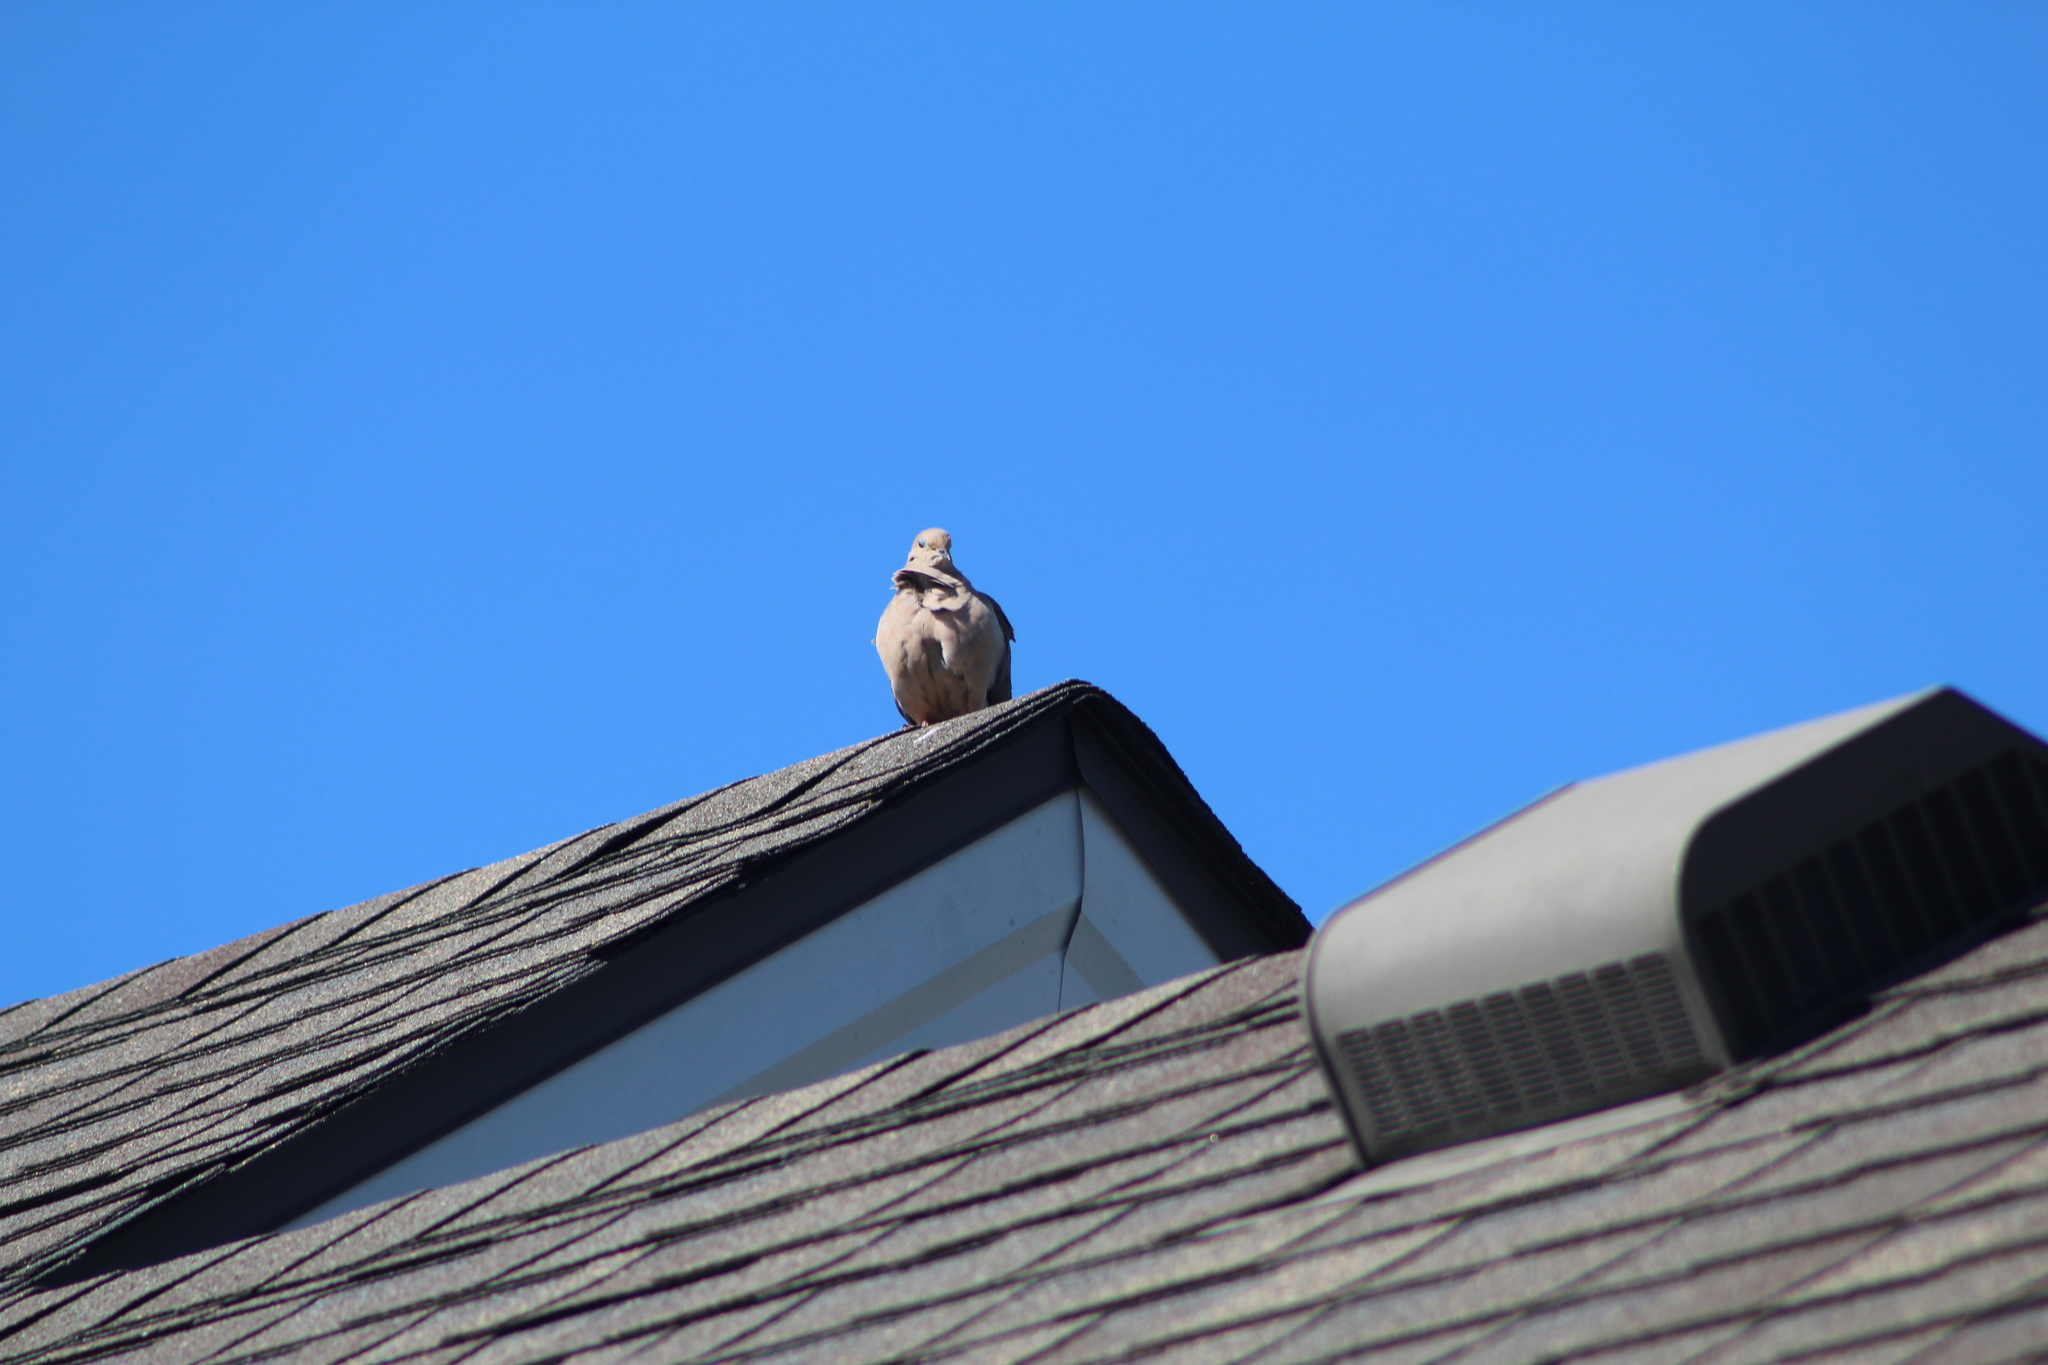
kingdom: Animalia
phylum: Chordata
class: Aves
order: Columbiformes
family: Columbidae
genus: Zenaida
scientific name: Zenaida macroura
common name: Mourning dove
